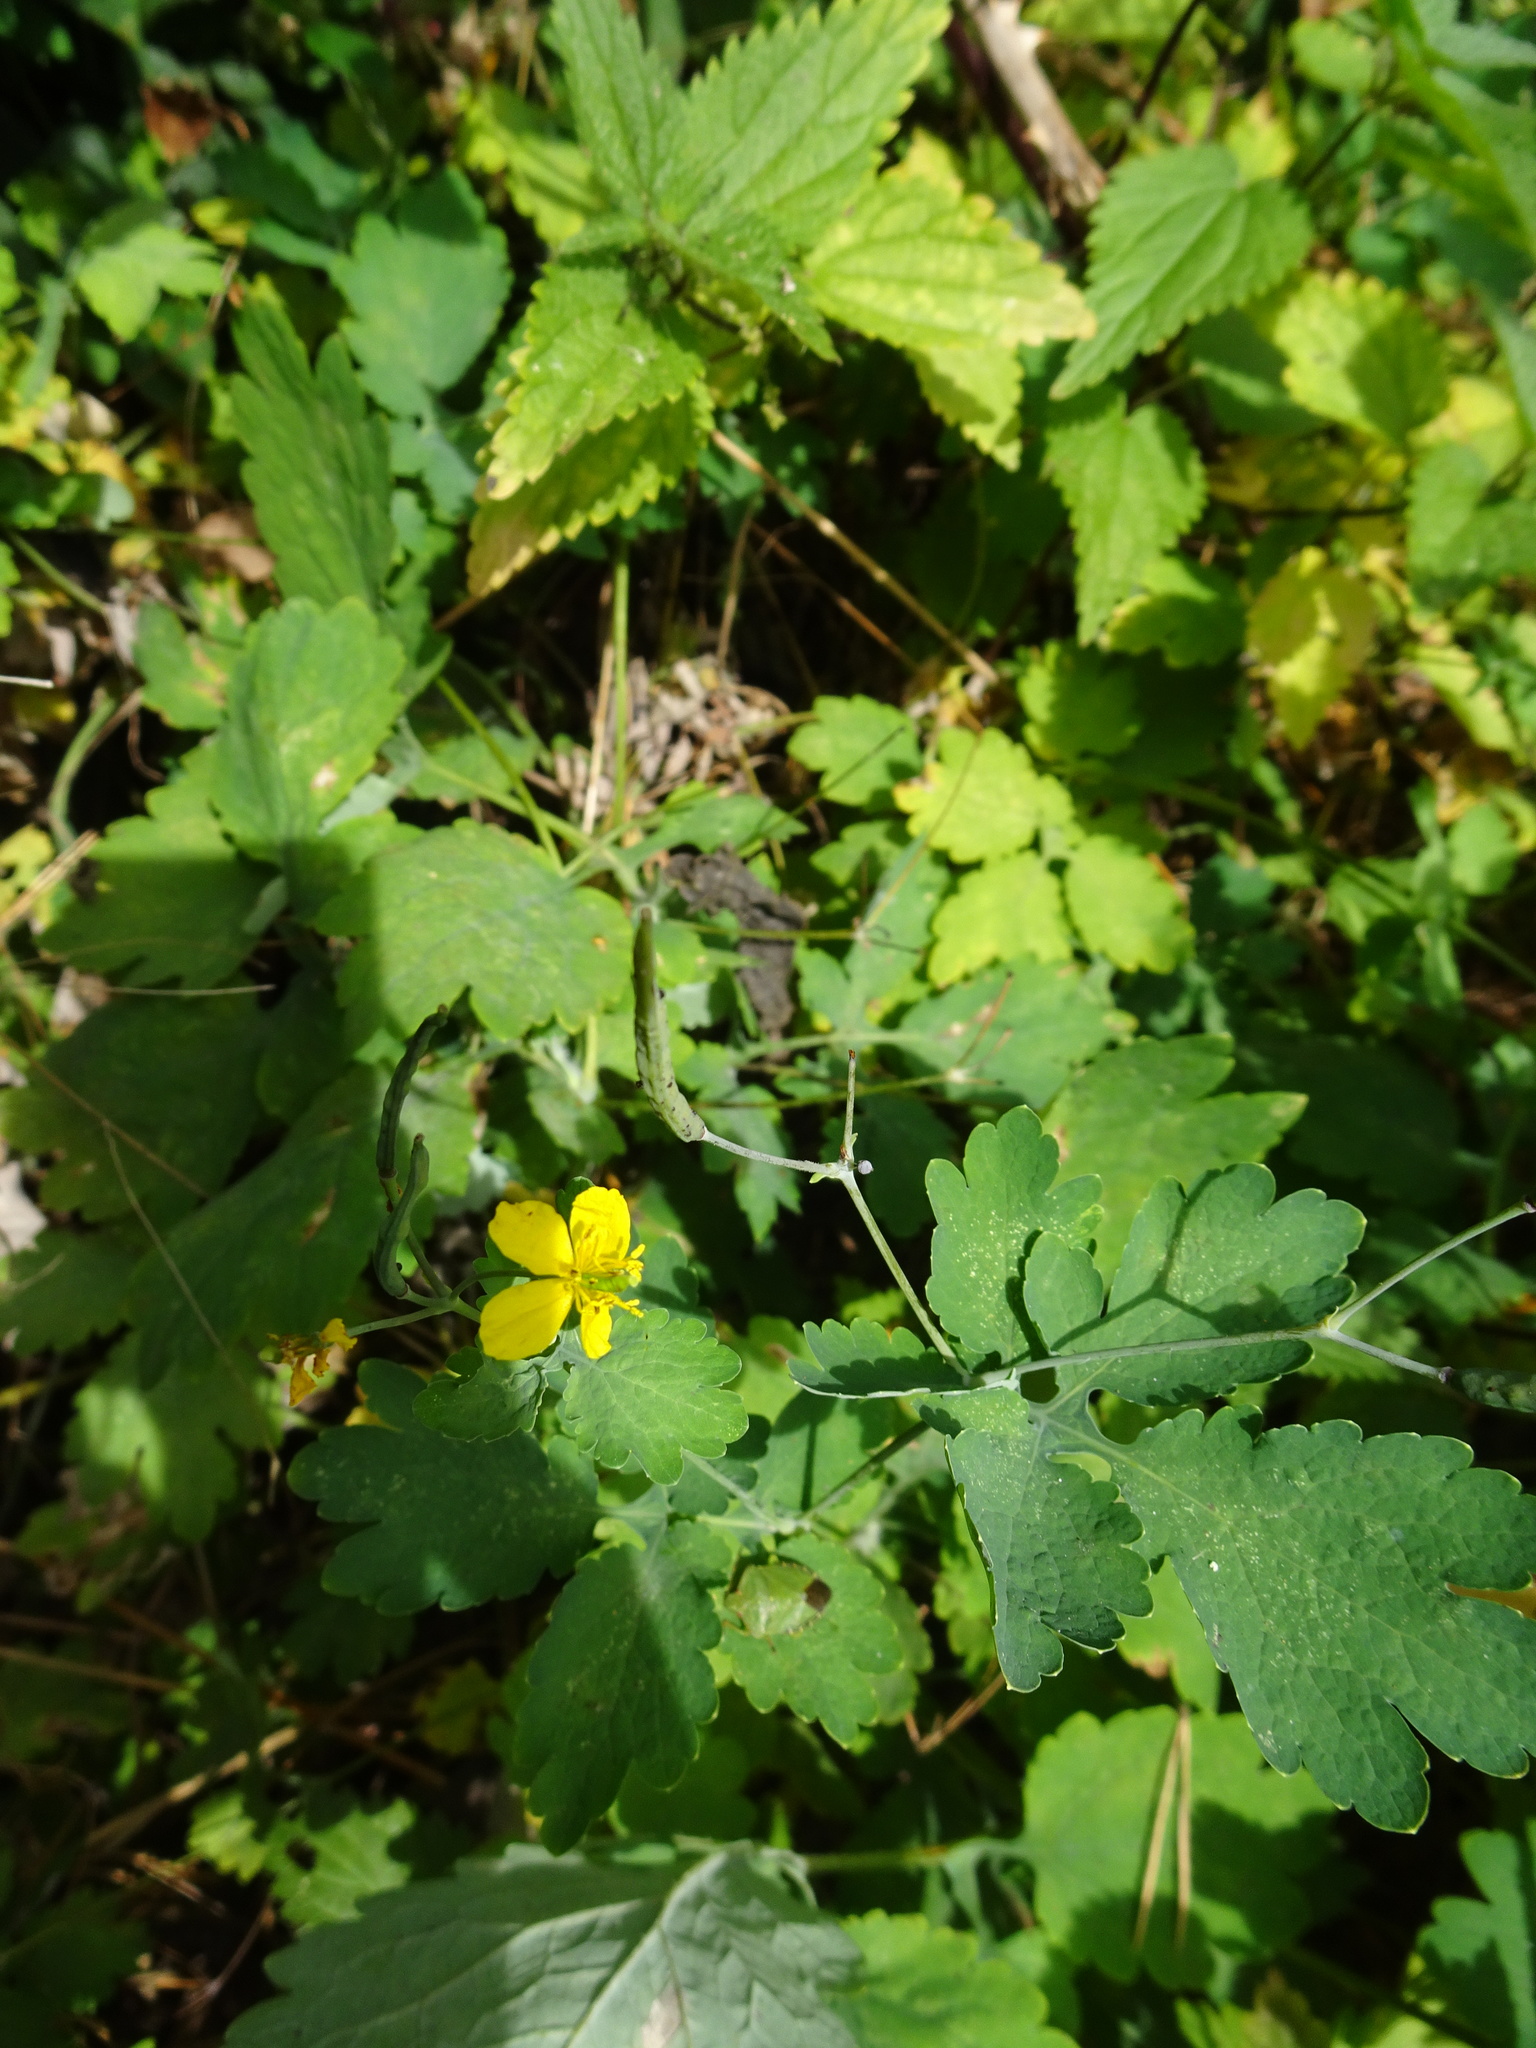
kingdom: Plantae
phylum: Tracheophyta
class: Magnoliopsida
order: Ranunculales
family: Papaveraceae
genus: Chelidonium
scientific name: Chelidonium majus
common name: Greater celandine
